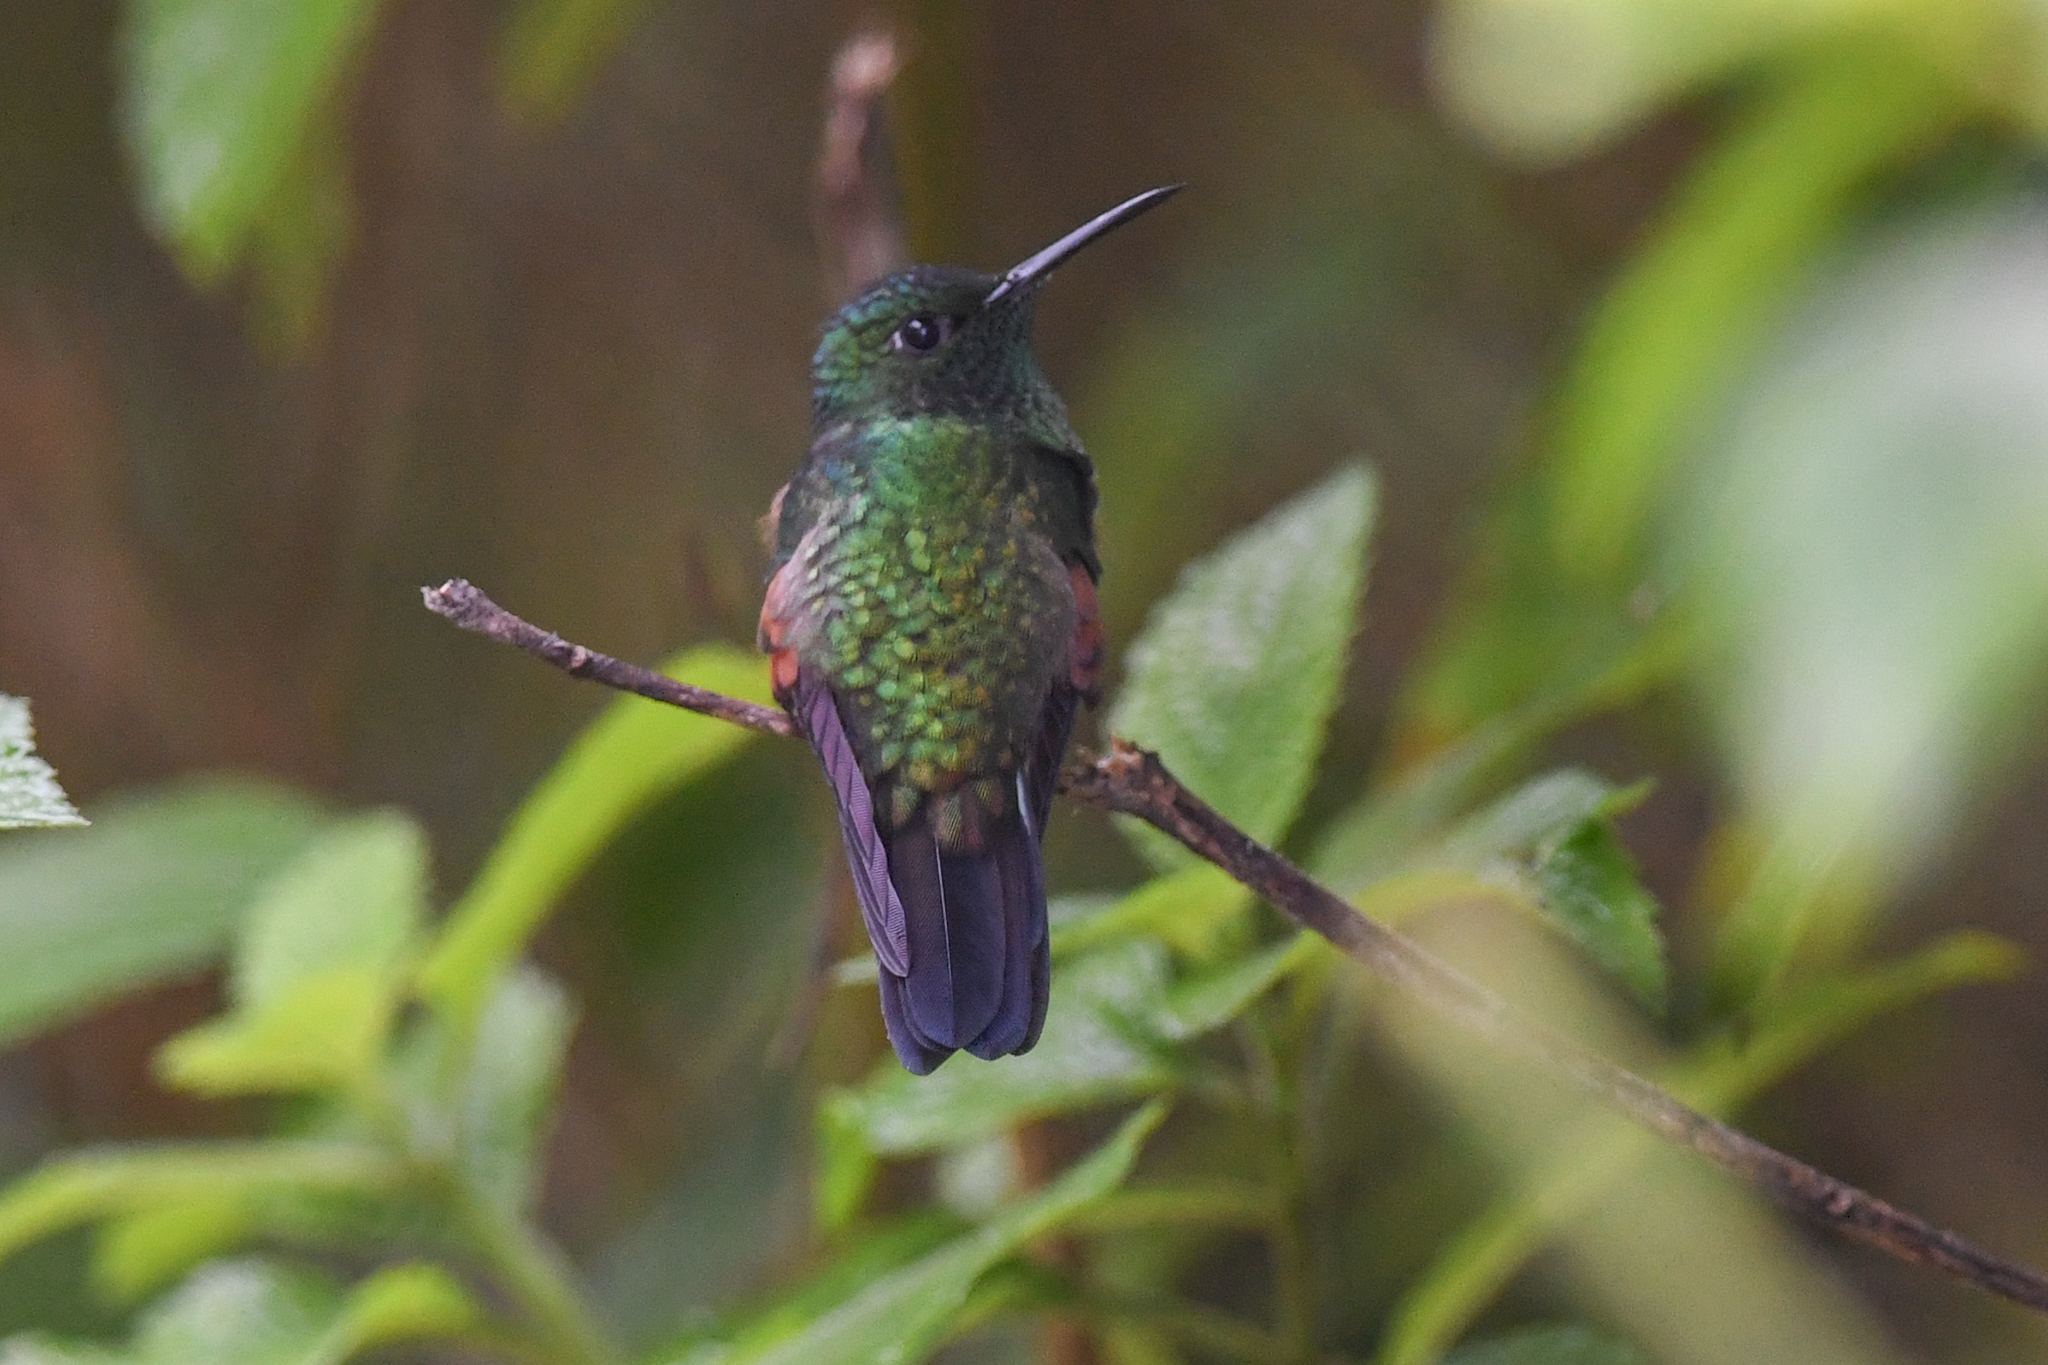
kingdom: Animalia
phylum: Chordata
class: Aves
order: Apodiformes
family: Trochilidae
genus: Eupherusa
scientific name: Eupherusa eximia
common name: Stripe-tailed hummingbird
